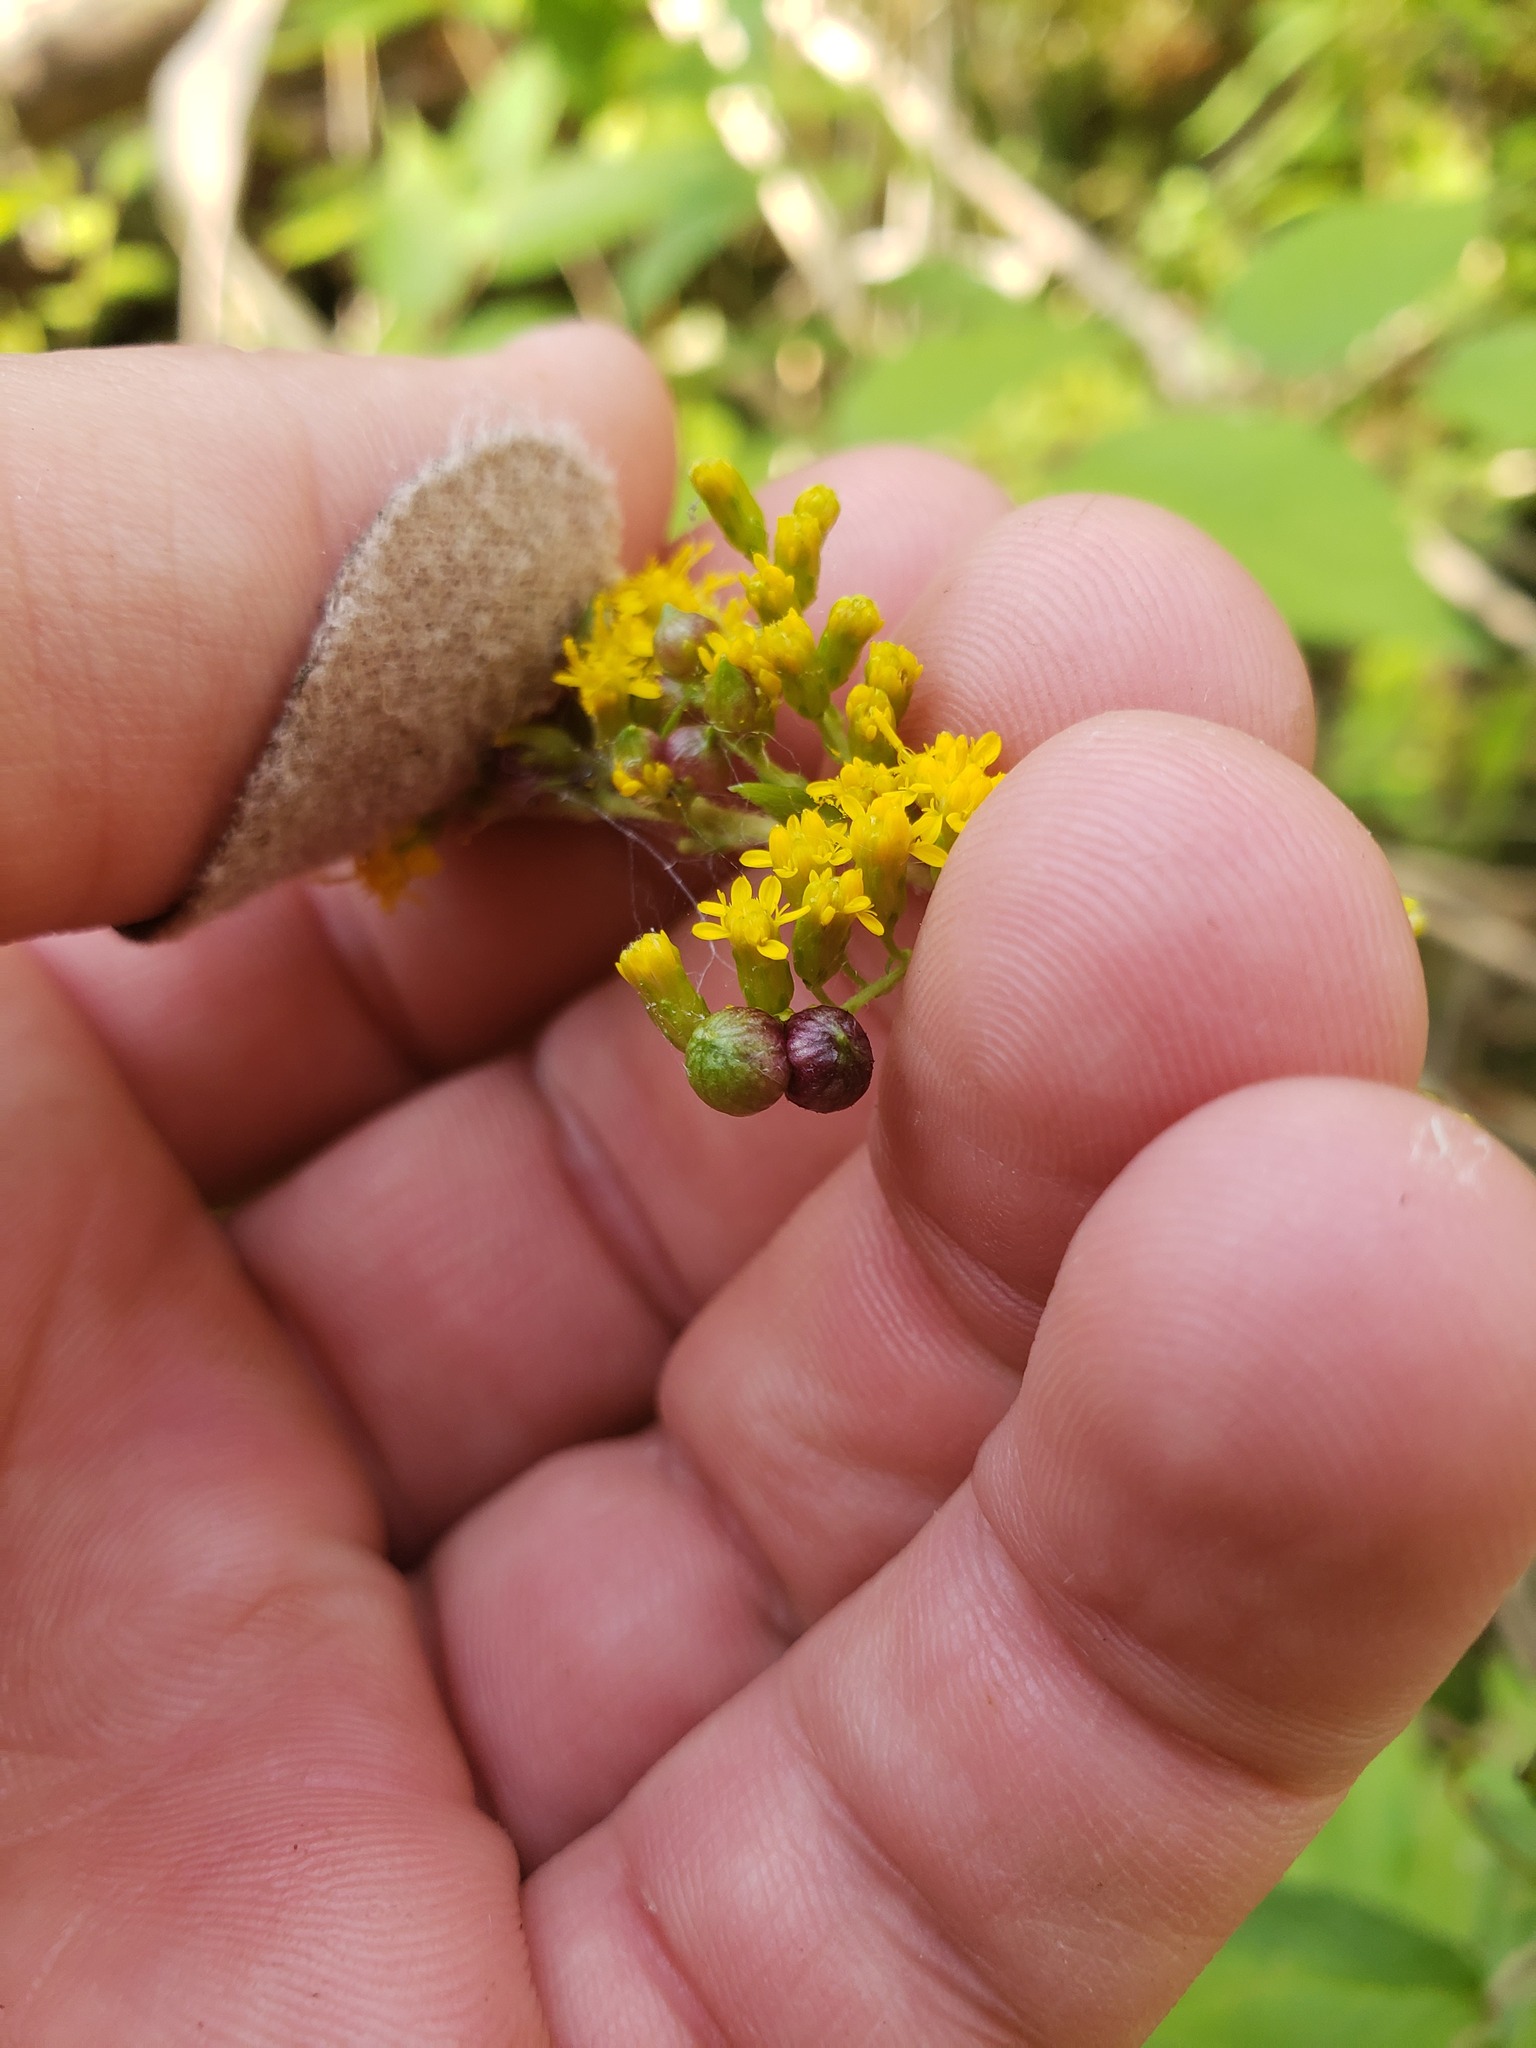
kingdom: Animalia
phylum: Arthropoda
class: Insecta
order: Diptera
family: Cecidomyiidae
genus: Schizomyia
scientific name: Schizomyia racemicola
